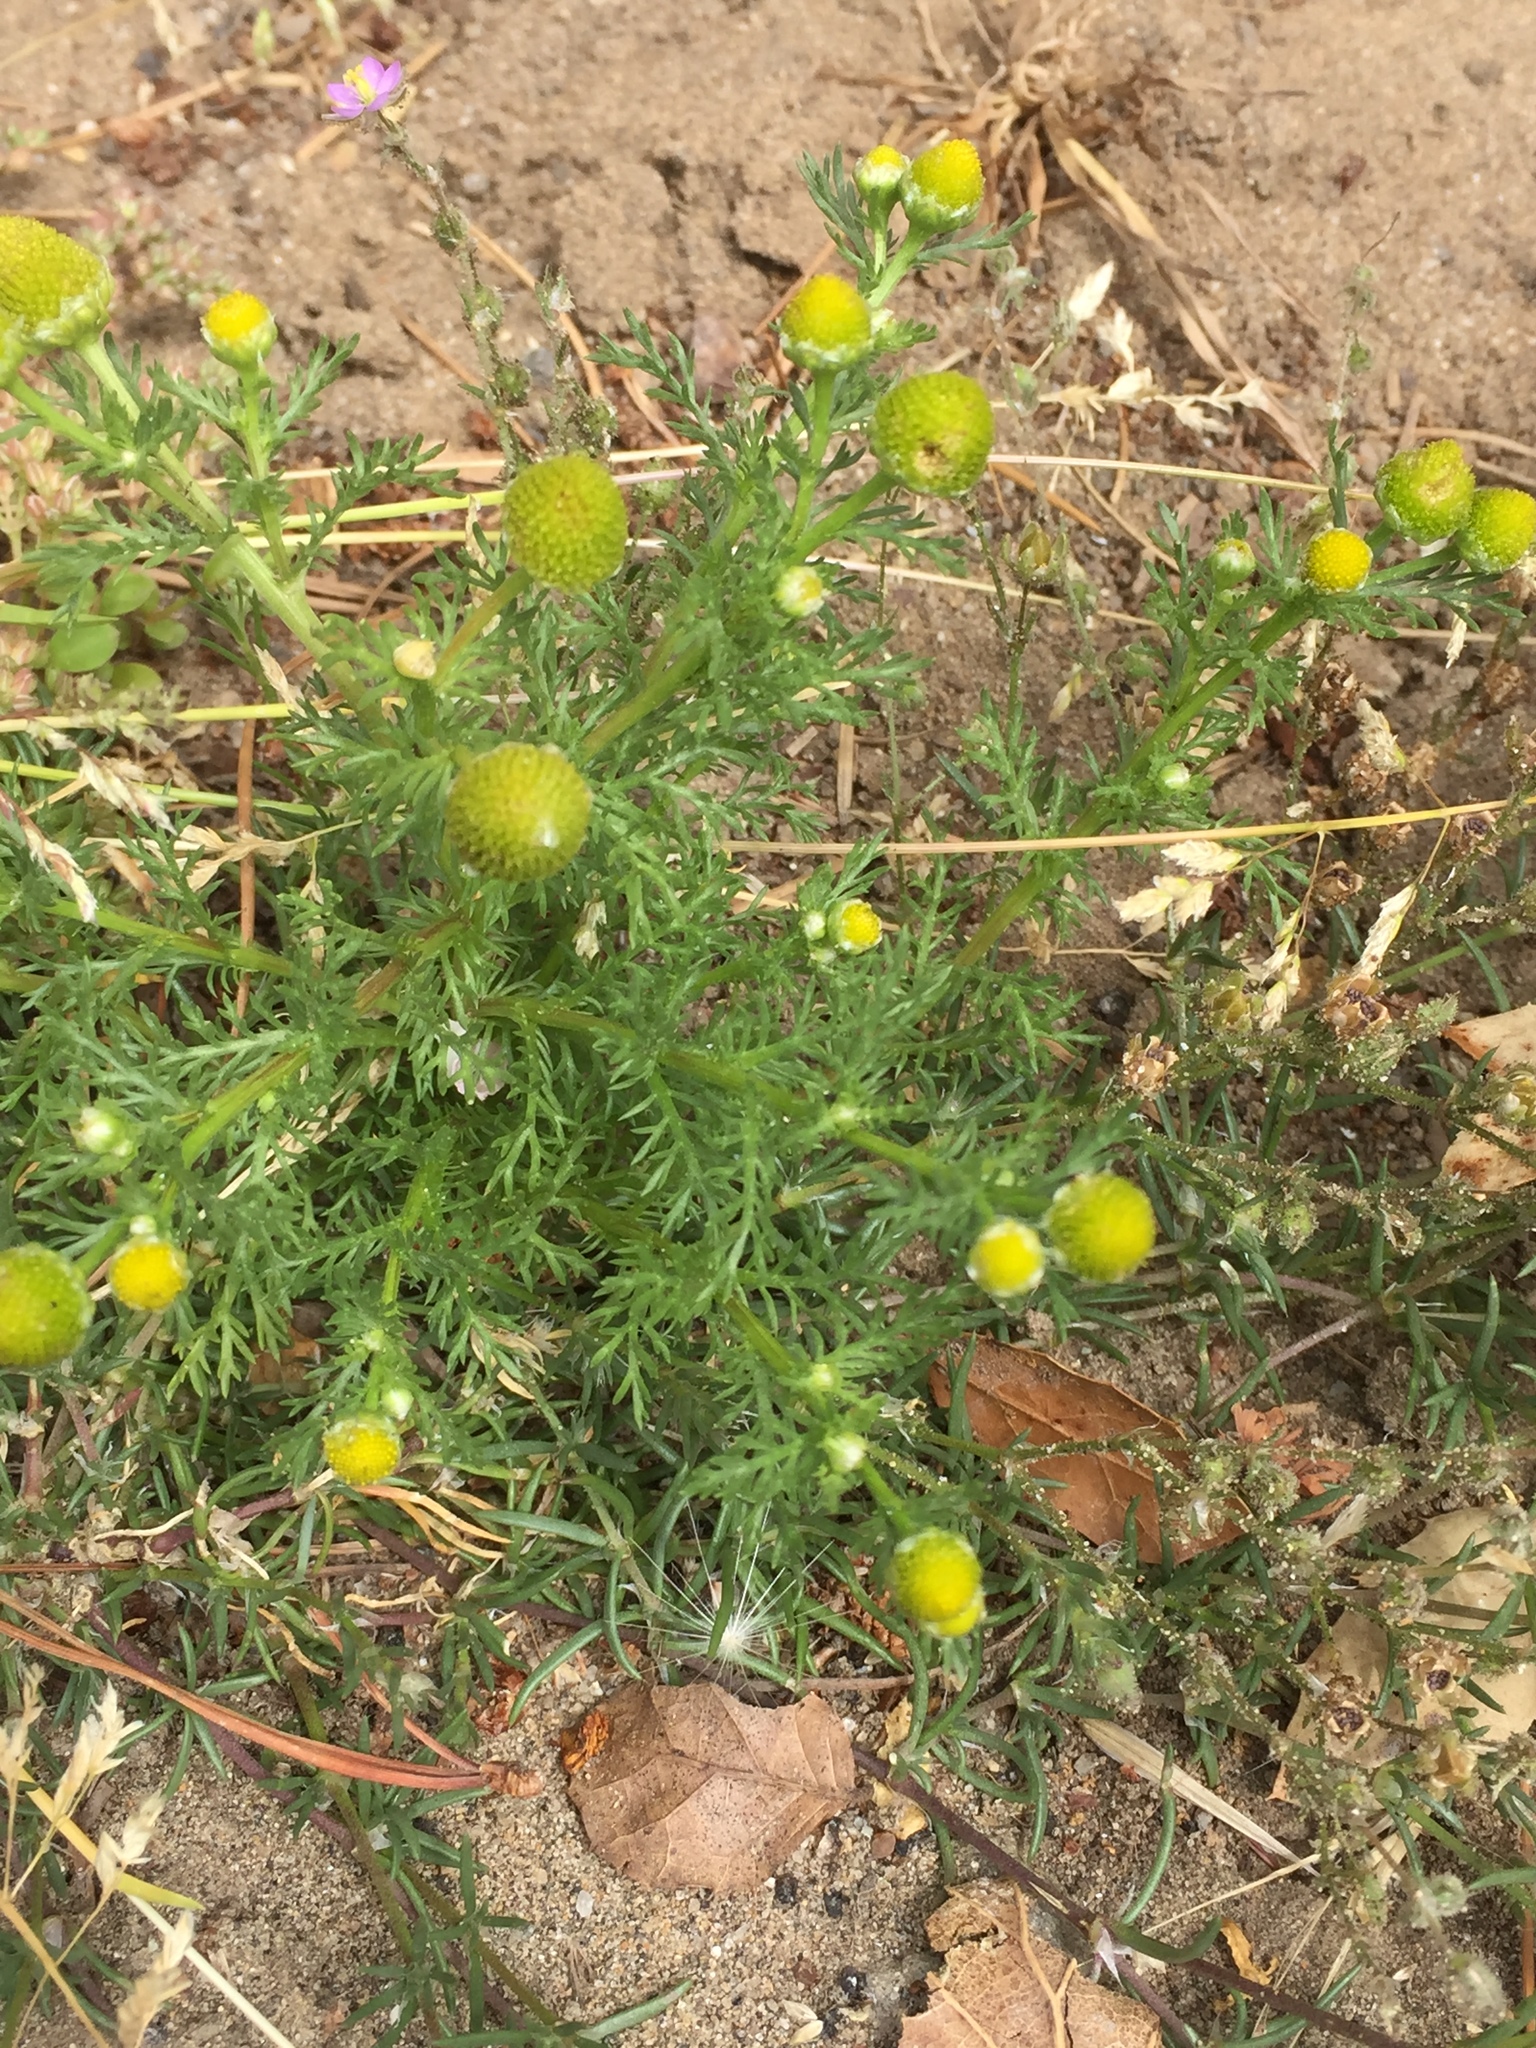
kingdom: Plantae
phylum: Tracheophyta
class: Magnoliopsida
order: Asterales
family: Asteraceae
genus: Matricaria
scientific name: Matricaria discoidea
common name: Disc mayweed
